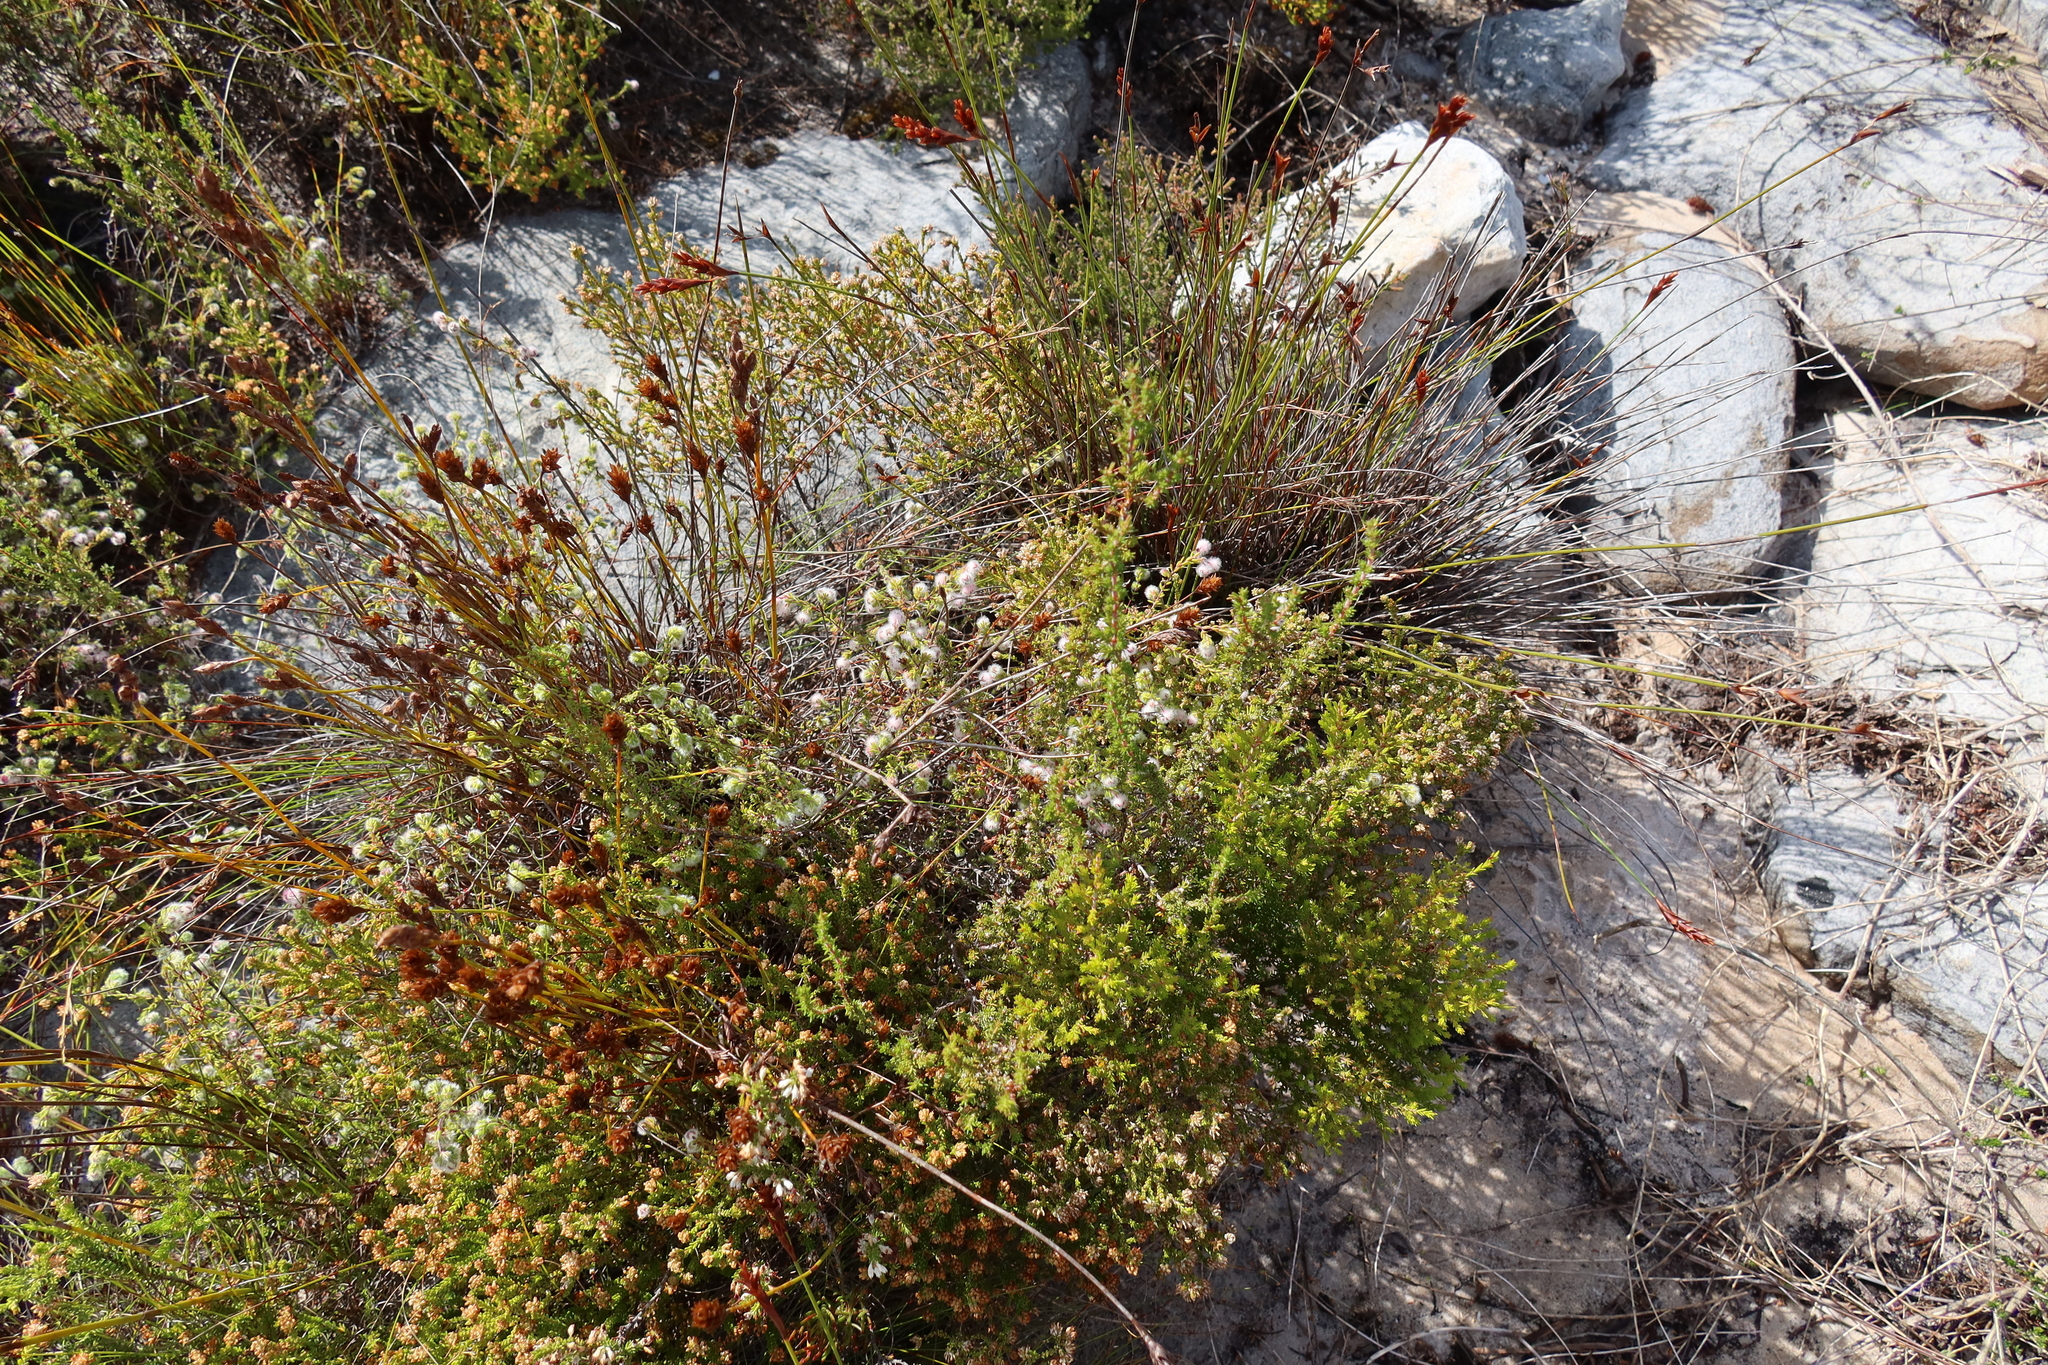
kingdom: Plantae
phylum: Tracheophyta
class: Magnoliopsida
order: Ericales
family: Ericaceae
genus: Erica
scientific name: Erica bruniades
